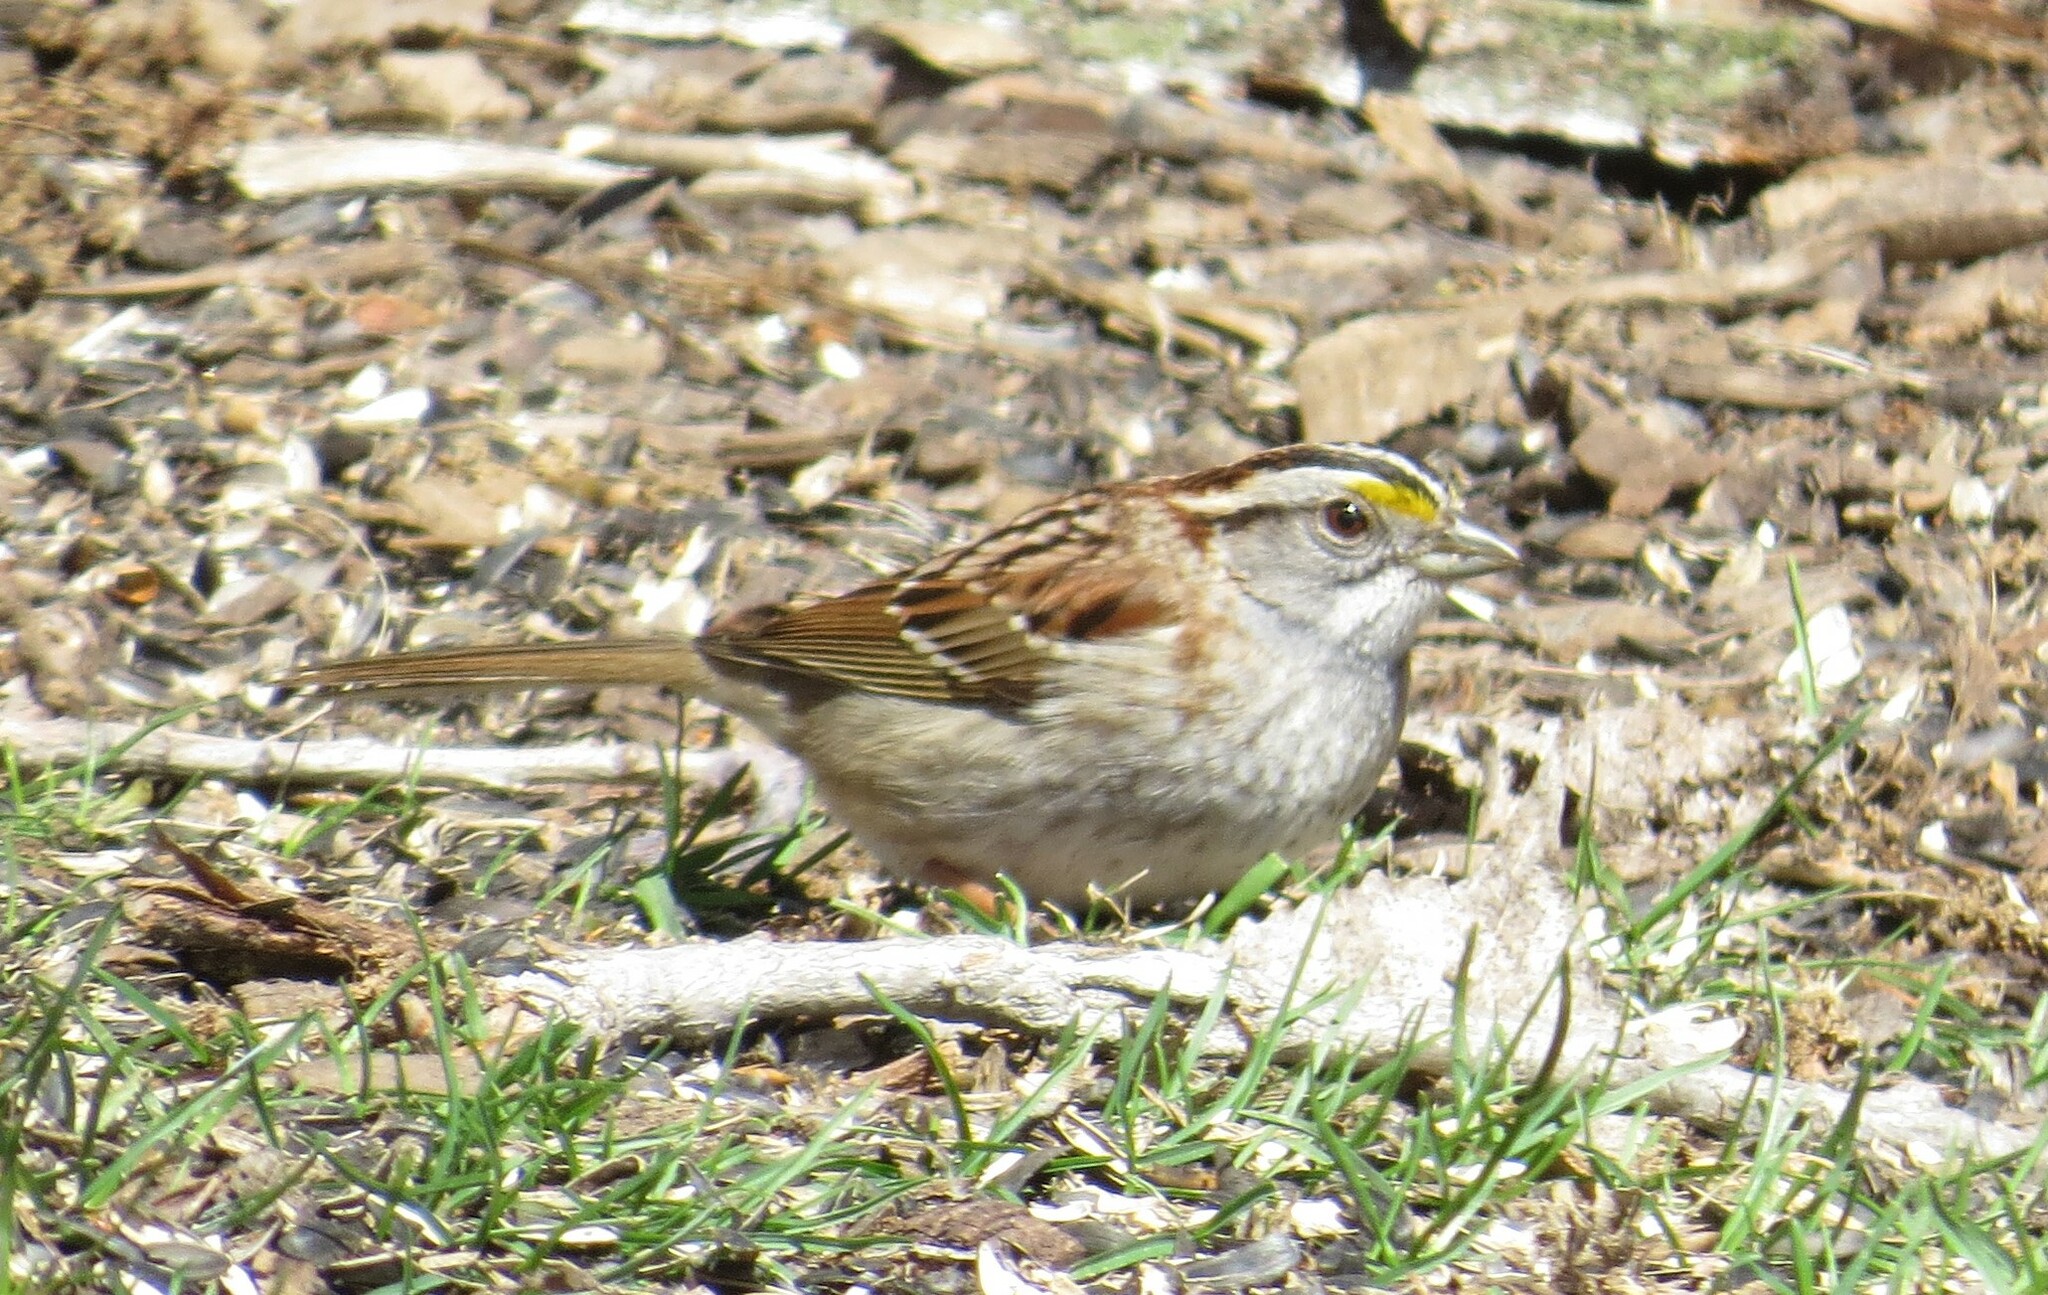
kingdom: Animalia
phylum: Chordata
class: Aves
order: Passeriformes
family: Passerellidae
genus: Zonotrichia
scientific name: Zonotrichia albicollis
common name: White-throated sparrow
